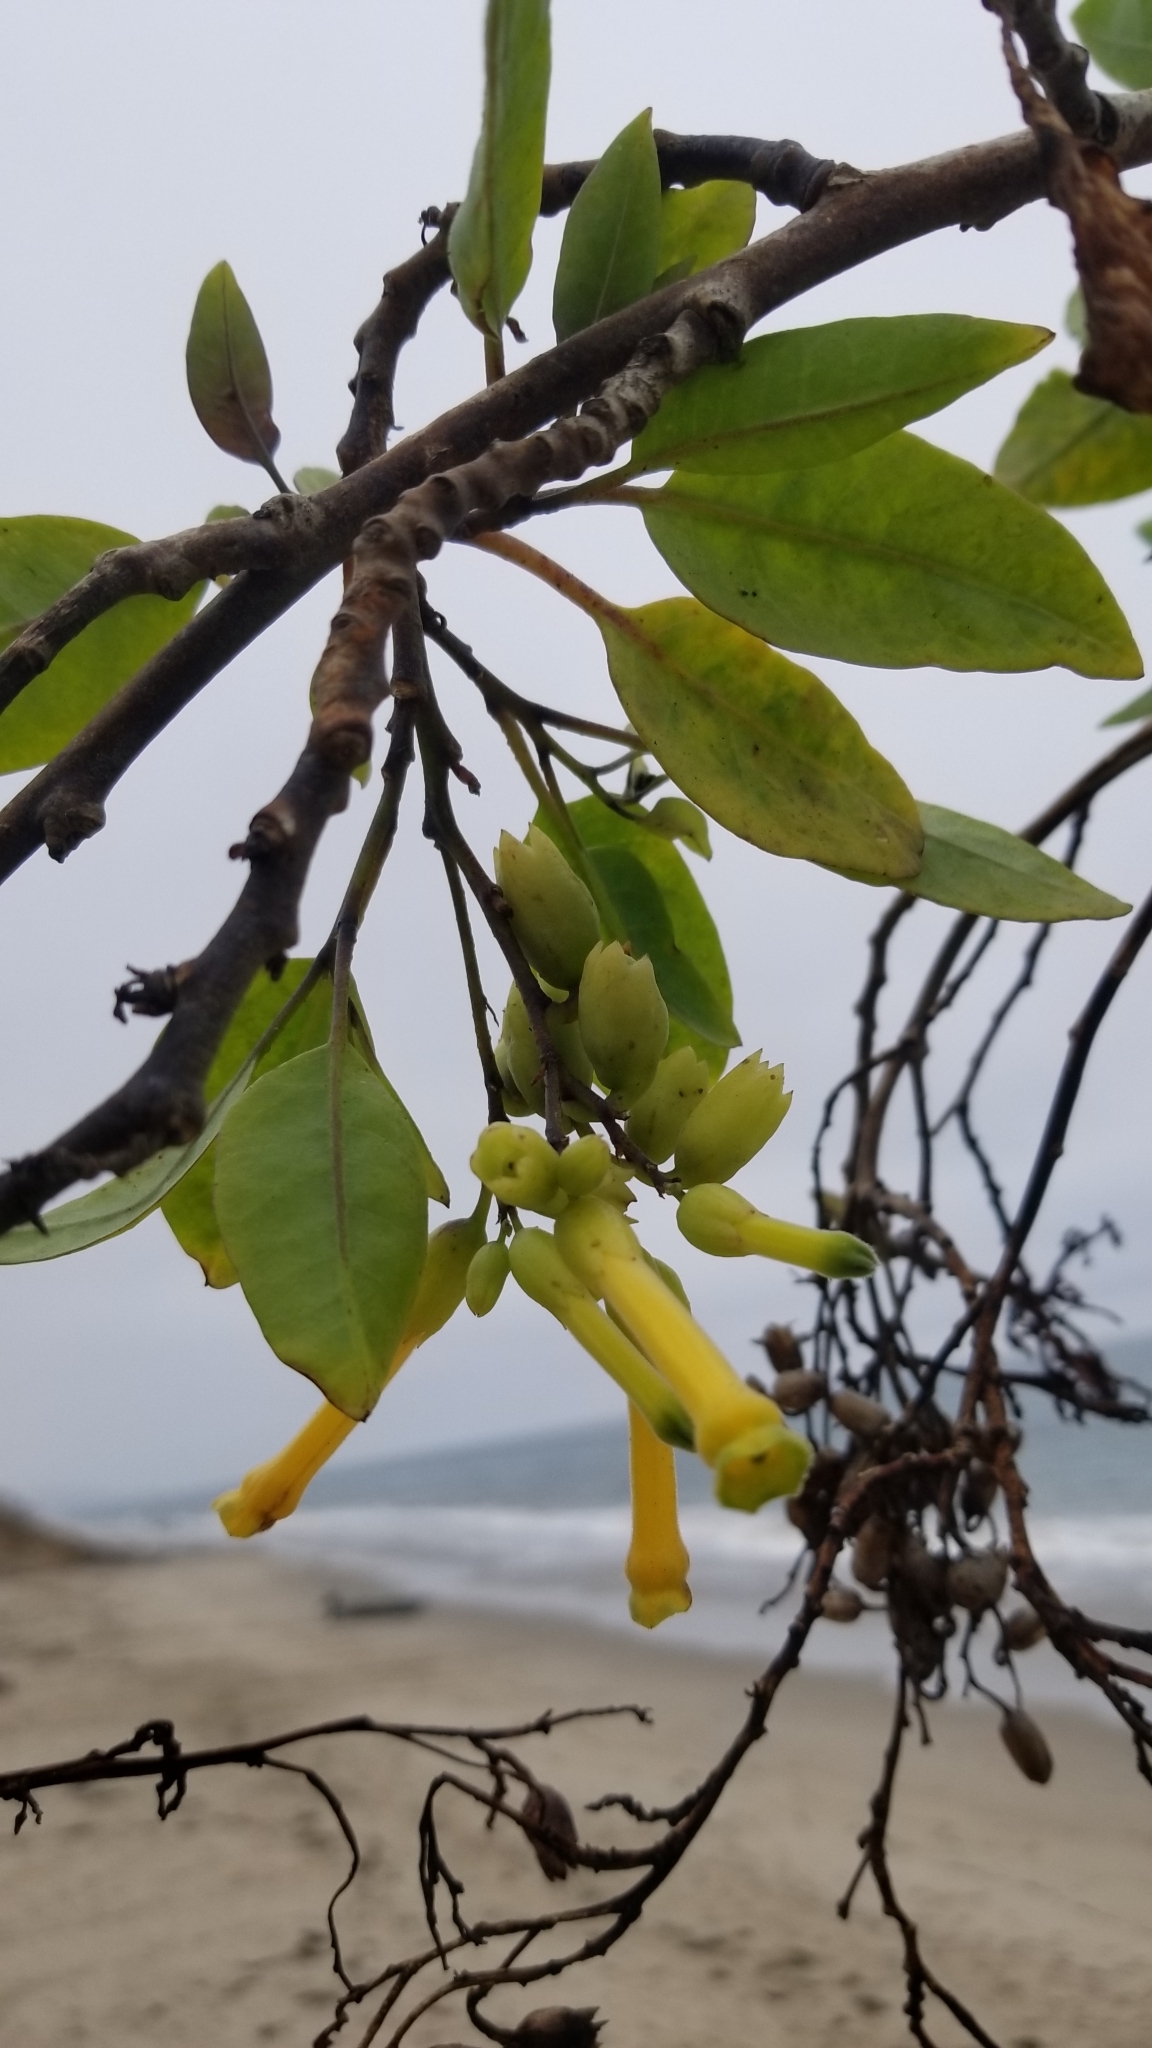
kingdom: Plantae
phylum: Tracheophyta
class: Magnoliopsida
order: Solanales
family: Solanaceae
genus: Nicotiana
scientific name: Nicotiana glauca
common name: Tree tobacco
